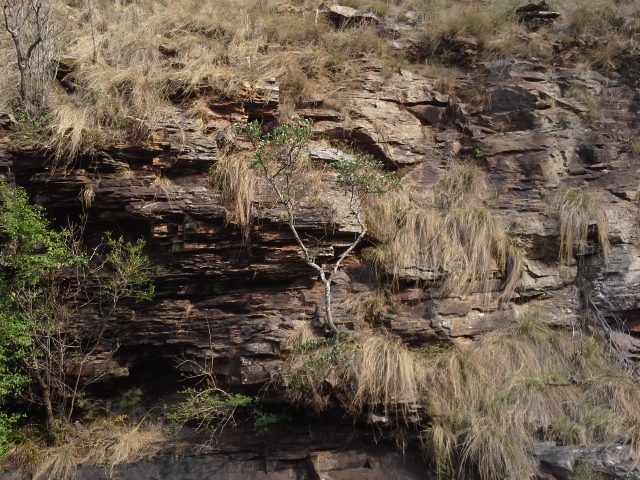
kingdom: Plantae
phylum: Tracheophyta
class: Magnoliopsida
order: Lamiales
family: Oleaceae
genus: Schrebera
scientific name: Schrebera alata
